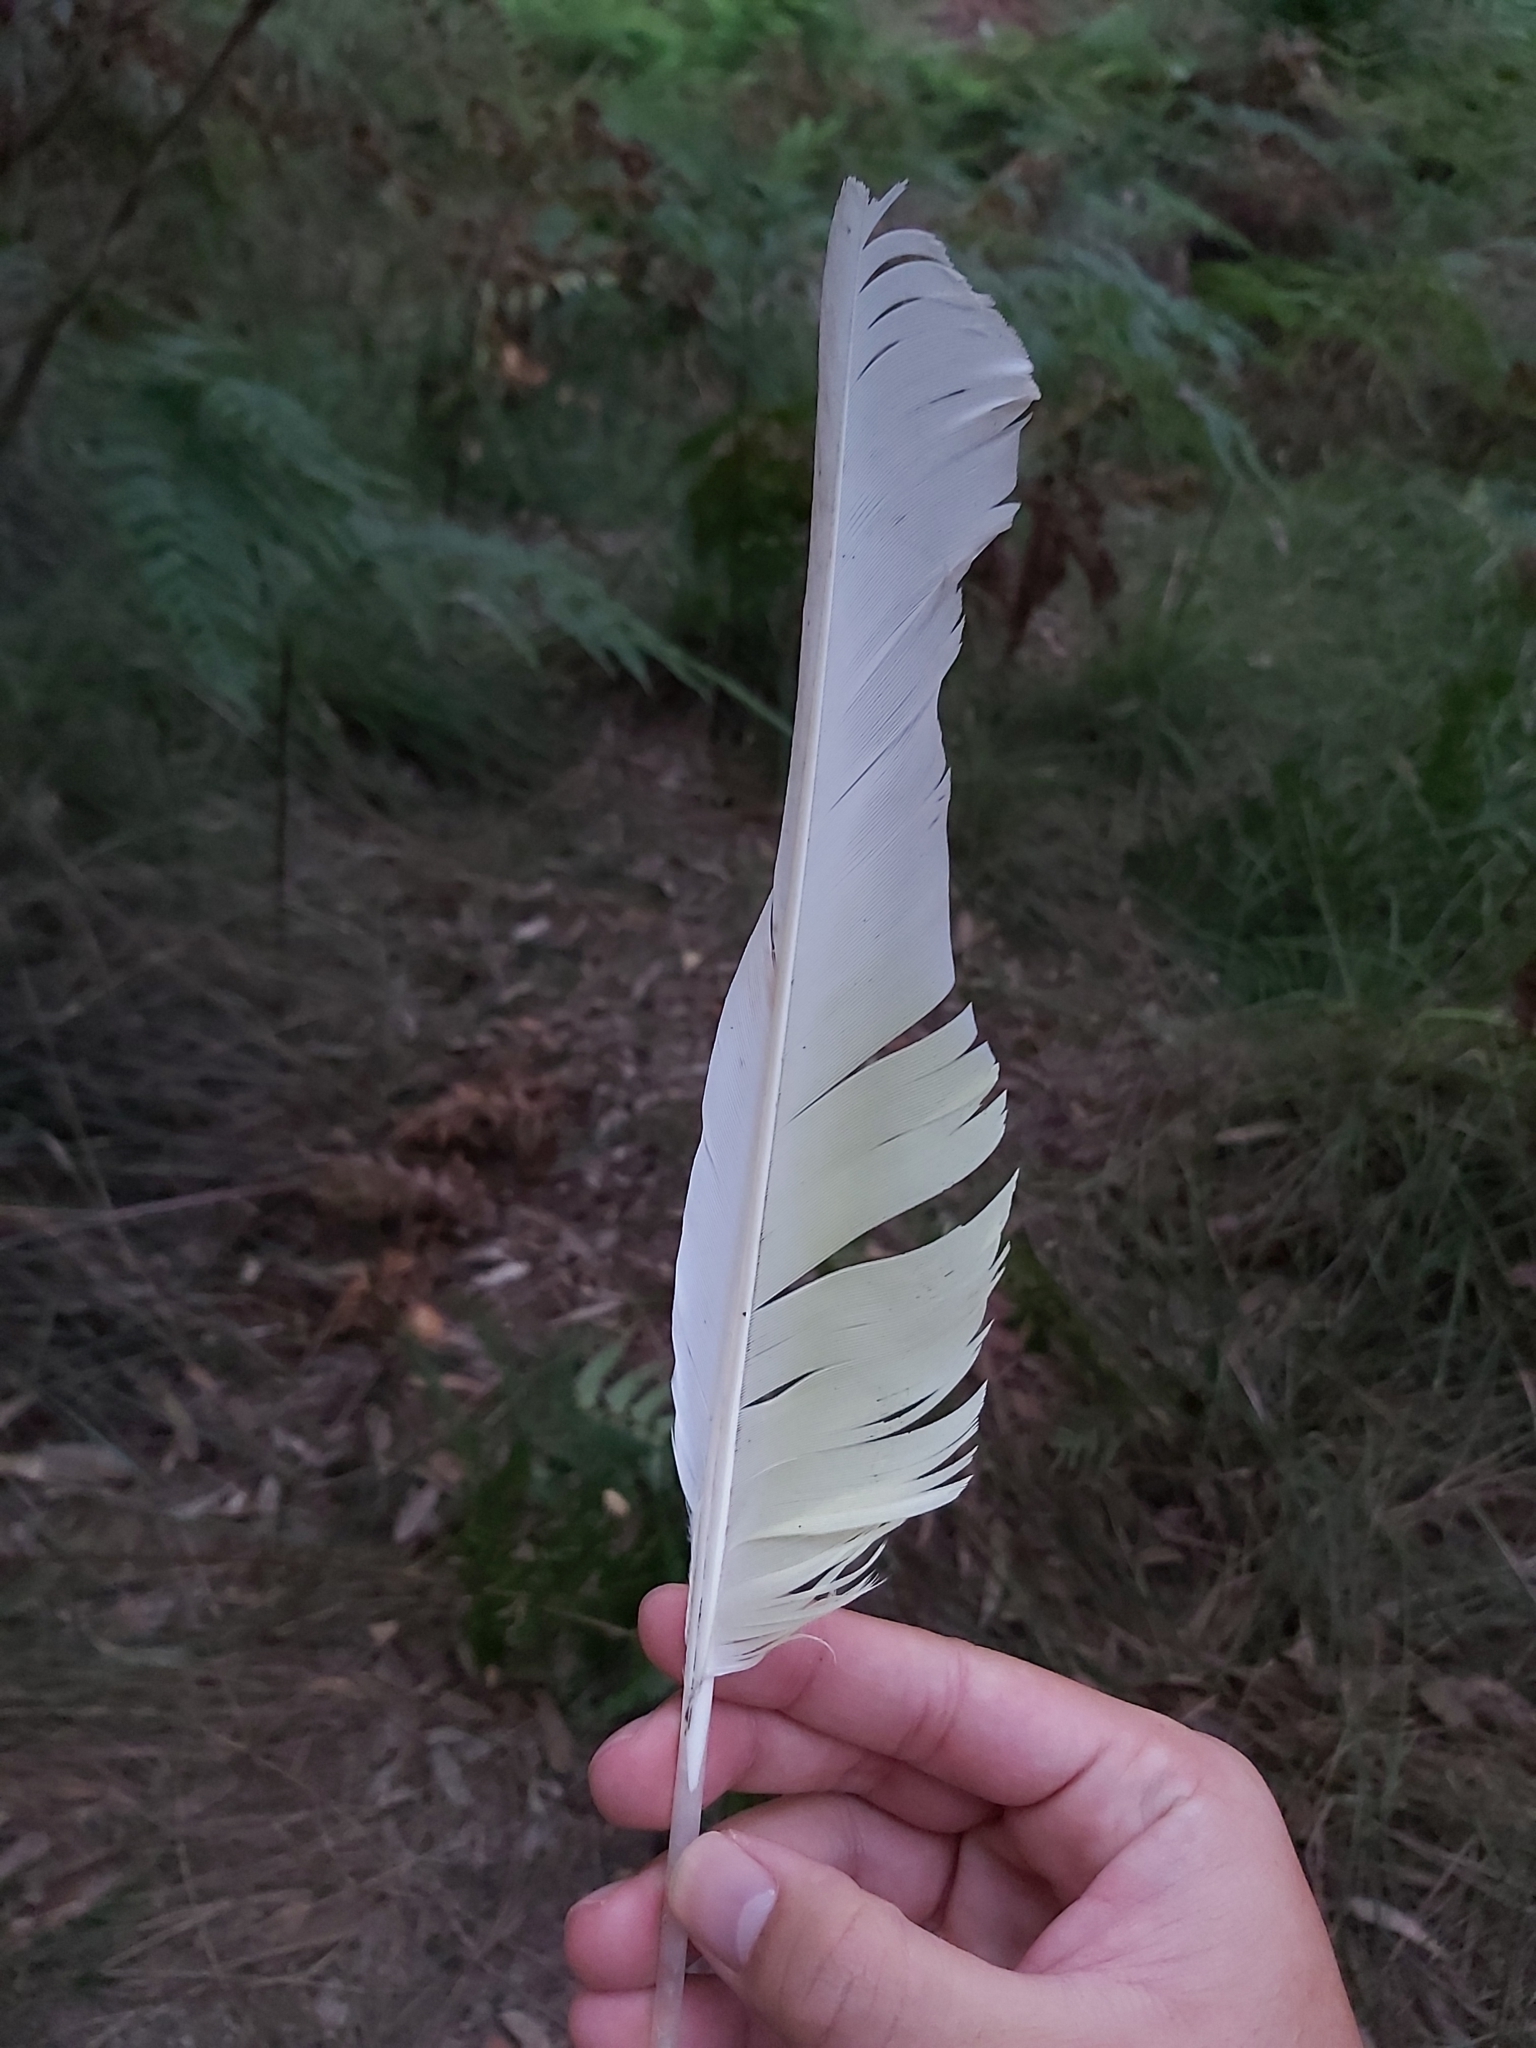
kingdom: Animalia
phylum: Chordata
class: Aves
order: Psittaciformes
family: Psittacidae
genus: Cacatua
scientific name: Cacatua galerita
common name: Sulphur-crested cockatoo
